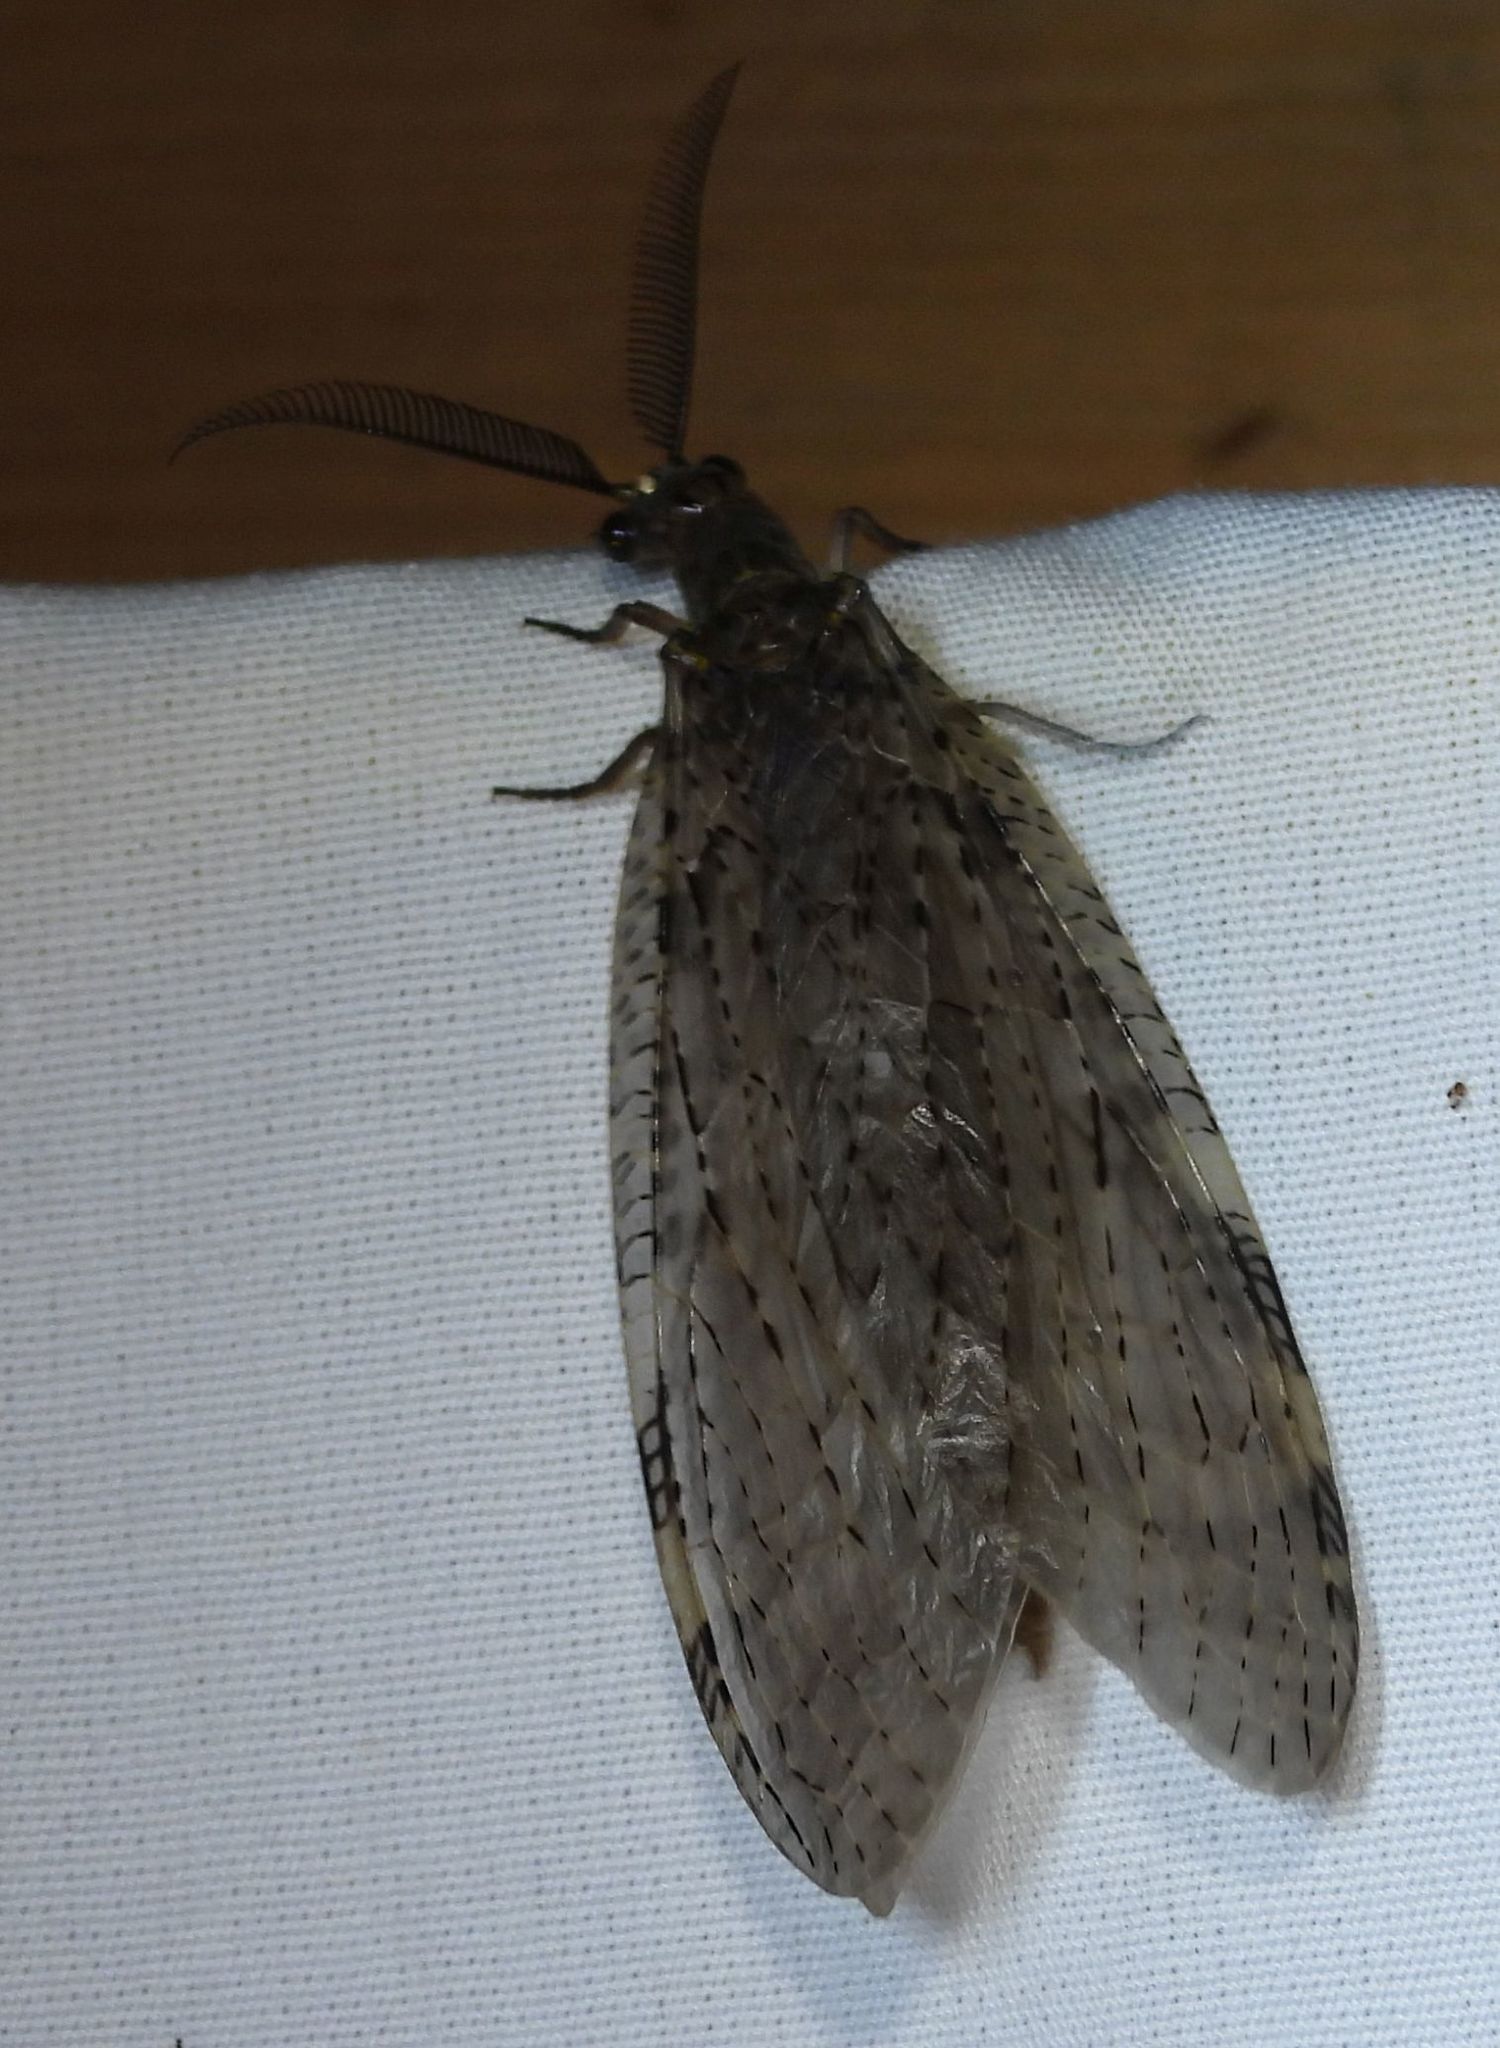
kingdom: Animalia
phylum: Arthropoda
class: Insecta
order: Megaloptera
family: Corydalidae
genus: Chauliodes
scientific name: Chauliodes pectinicornis
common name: Summer fishfly
